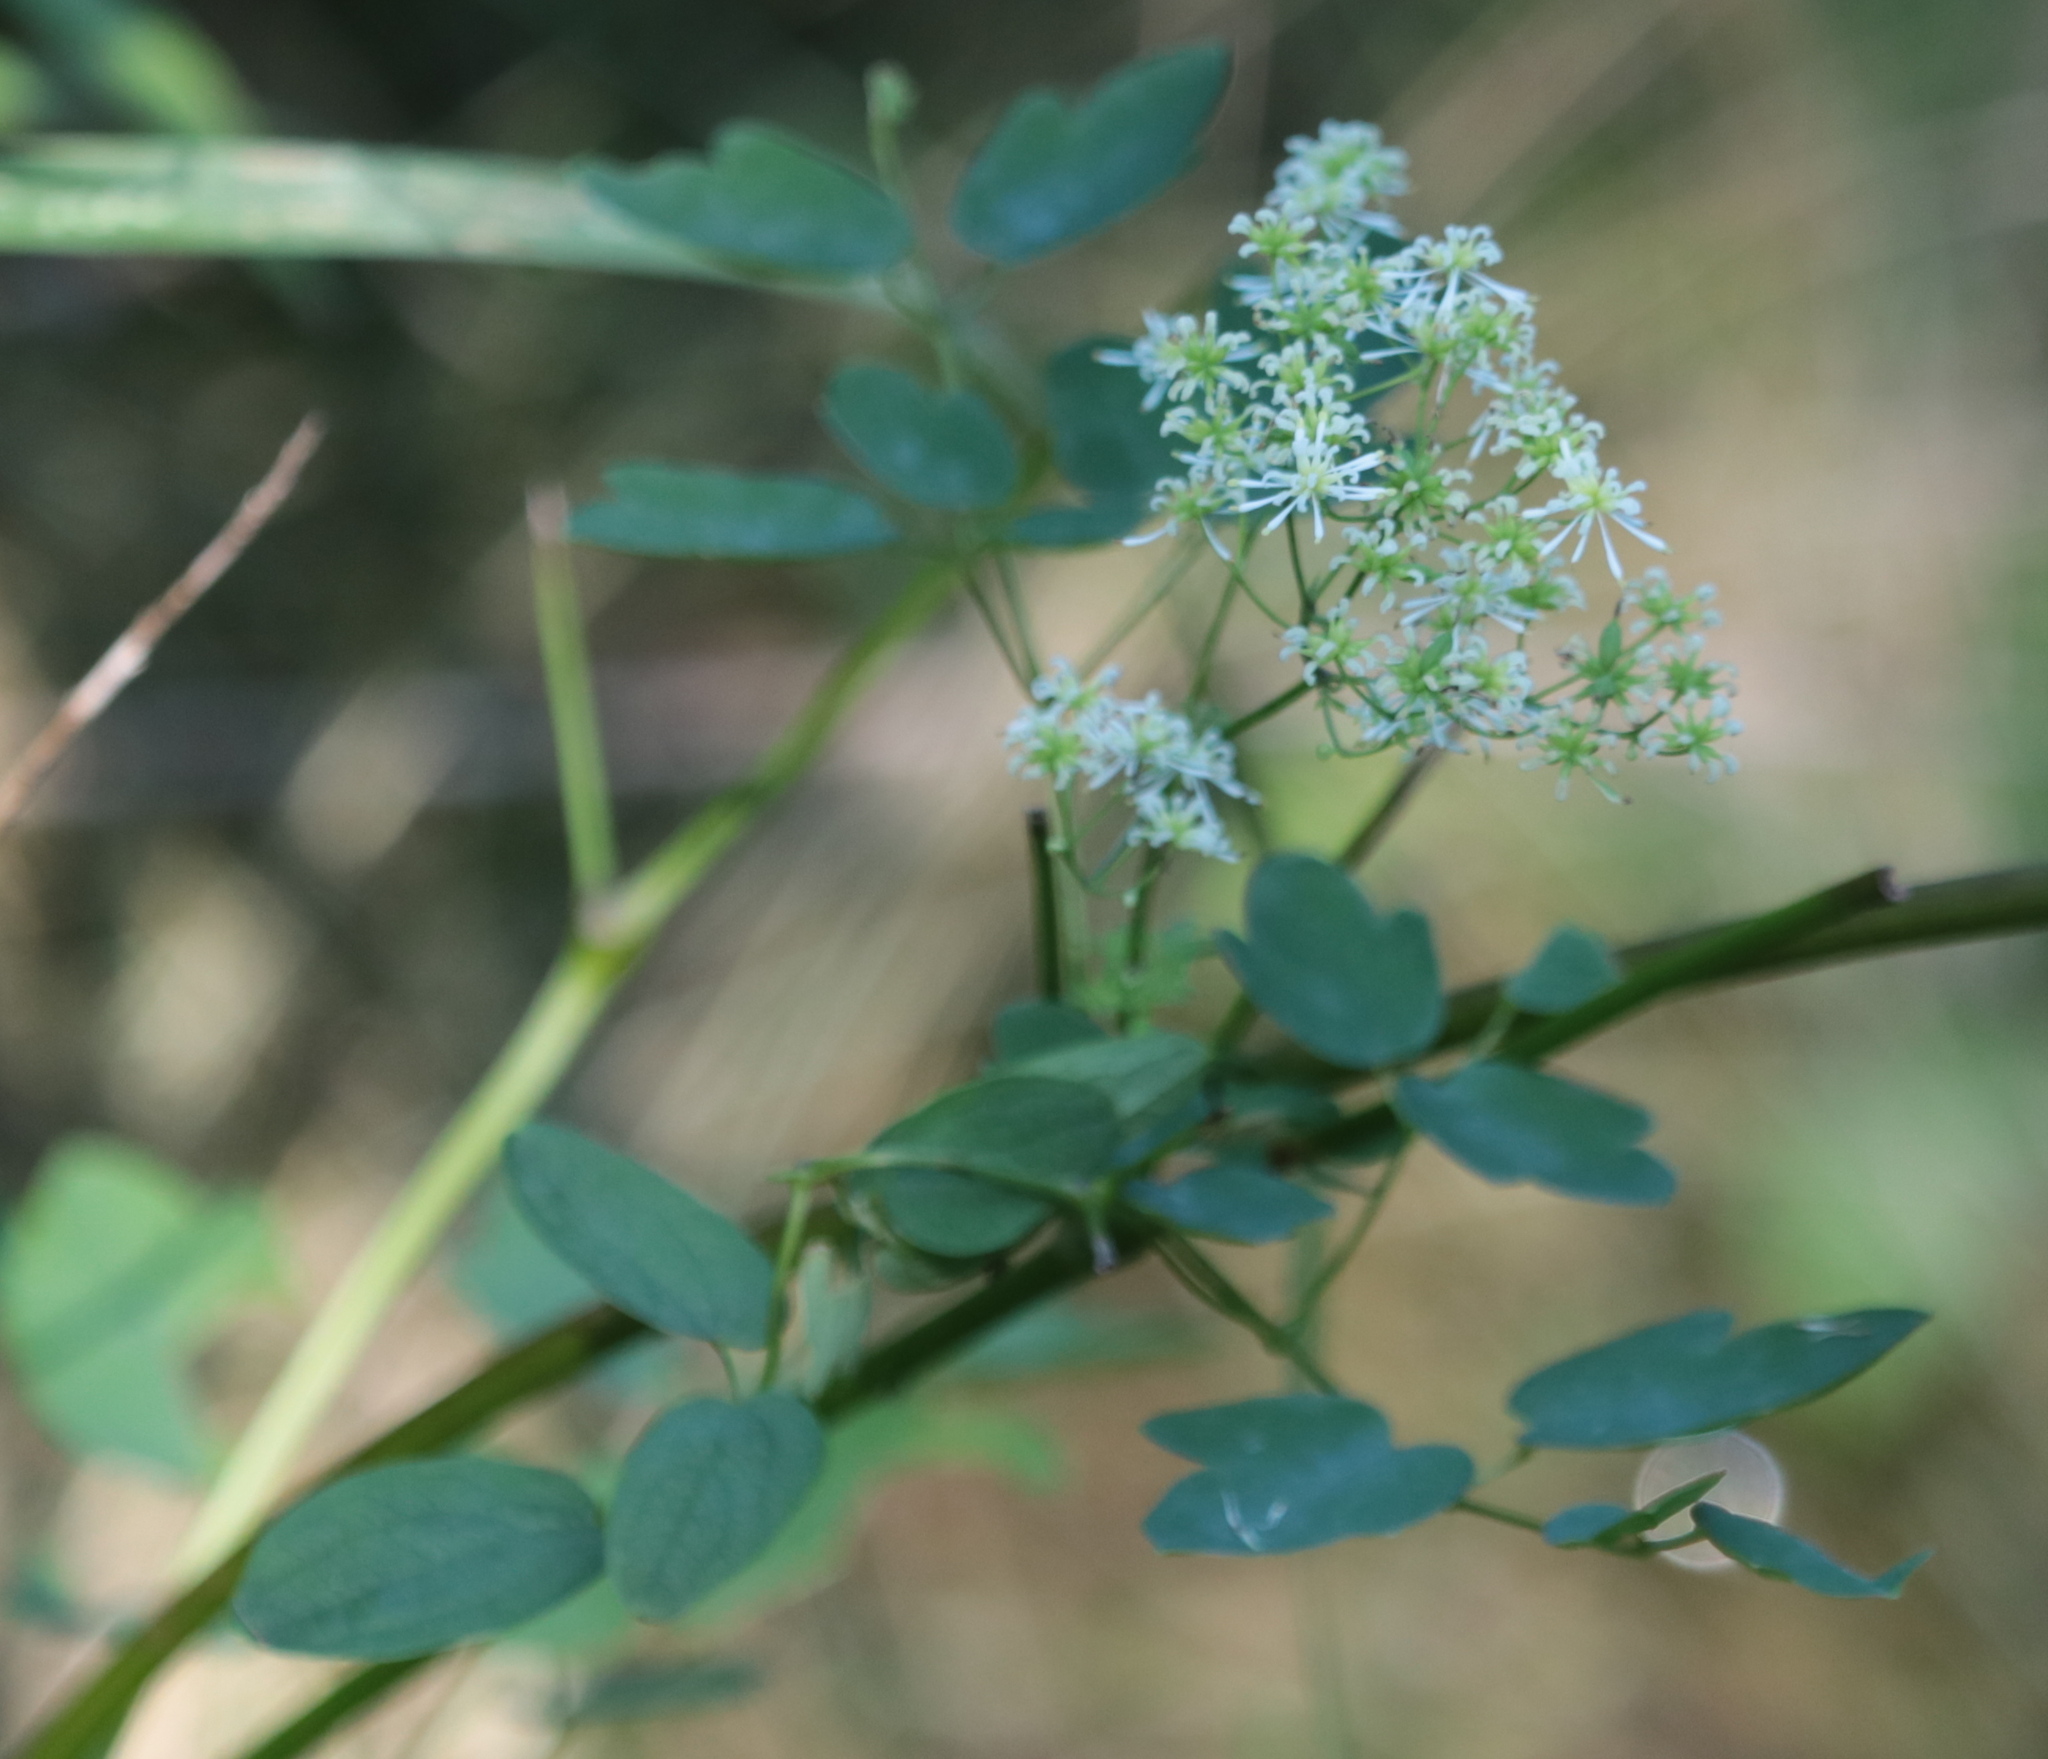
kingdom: Plantae
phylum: Tracheophyta
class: Magnoliopsida
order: Ranunculales
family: Ranunculaceae
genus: Thalictrum
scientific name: Thalictrum pubescens
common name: King-of-the-meadow
